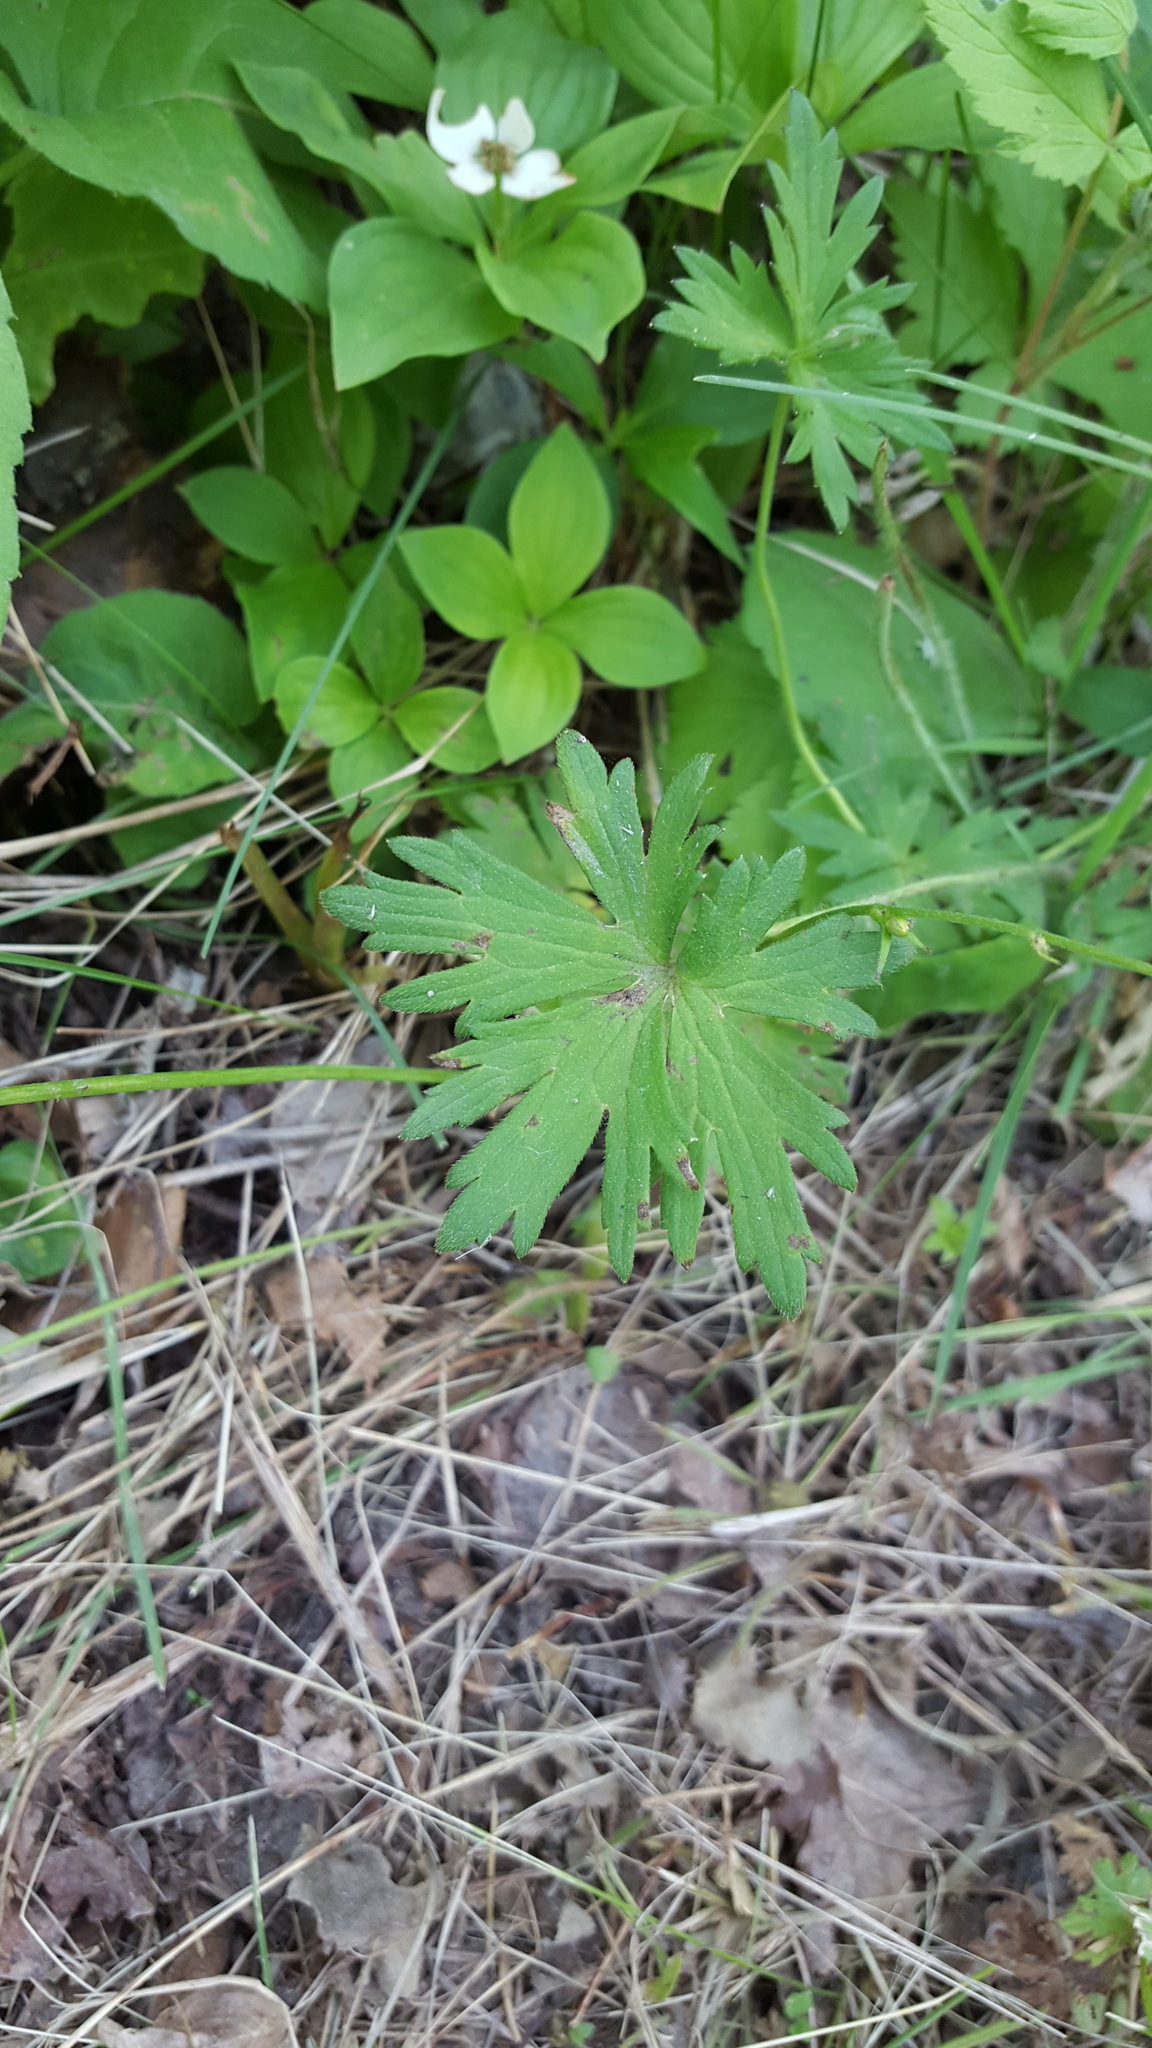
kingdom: Plantae
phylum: Tracheophyta
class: Magnoliopsida
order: Ranunculales
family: Ranunculaceae
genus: Ranunculus
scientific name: Ranunculus acris
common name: Meadow buttercup
